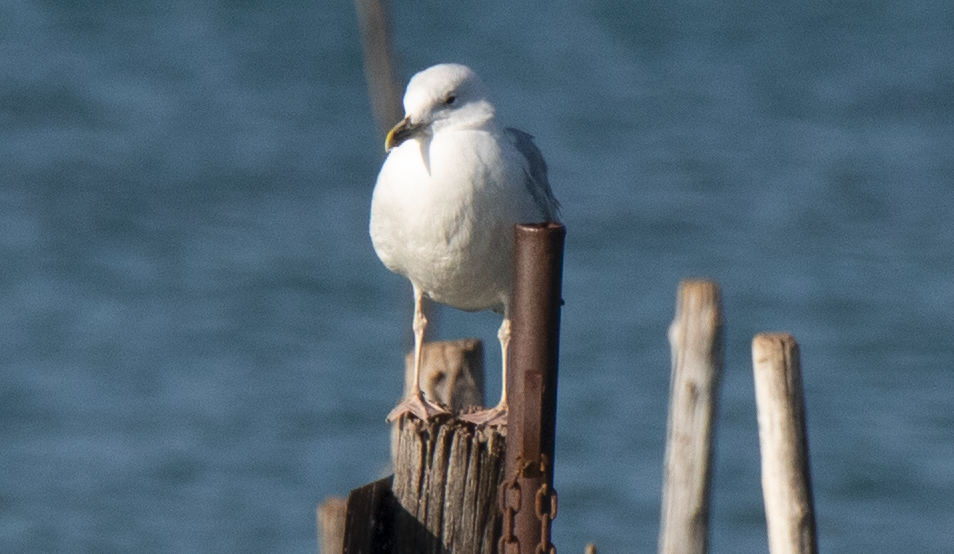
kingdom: Animalia
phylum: Chordata
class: Aves
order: Charadriiformes
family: Laridae
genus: Larus
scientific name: Larus cachinnans
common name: Caspian gull
